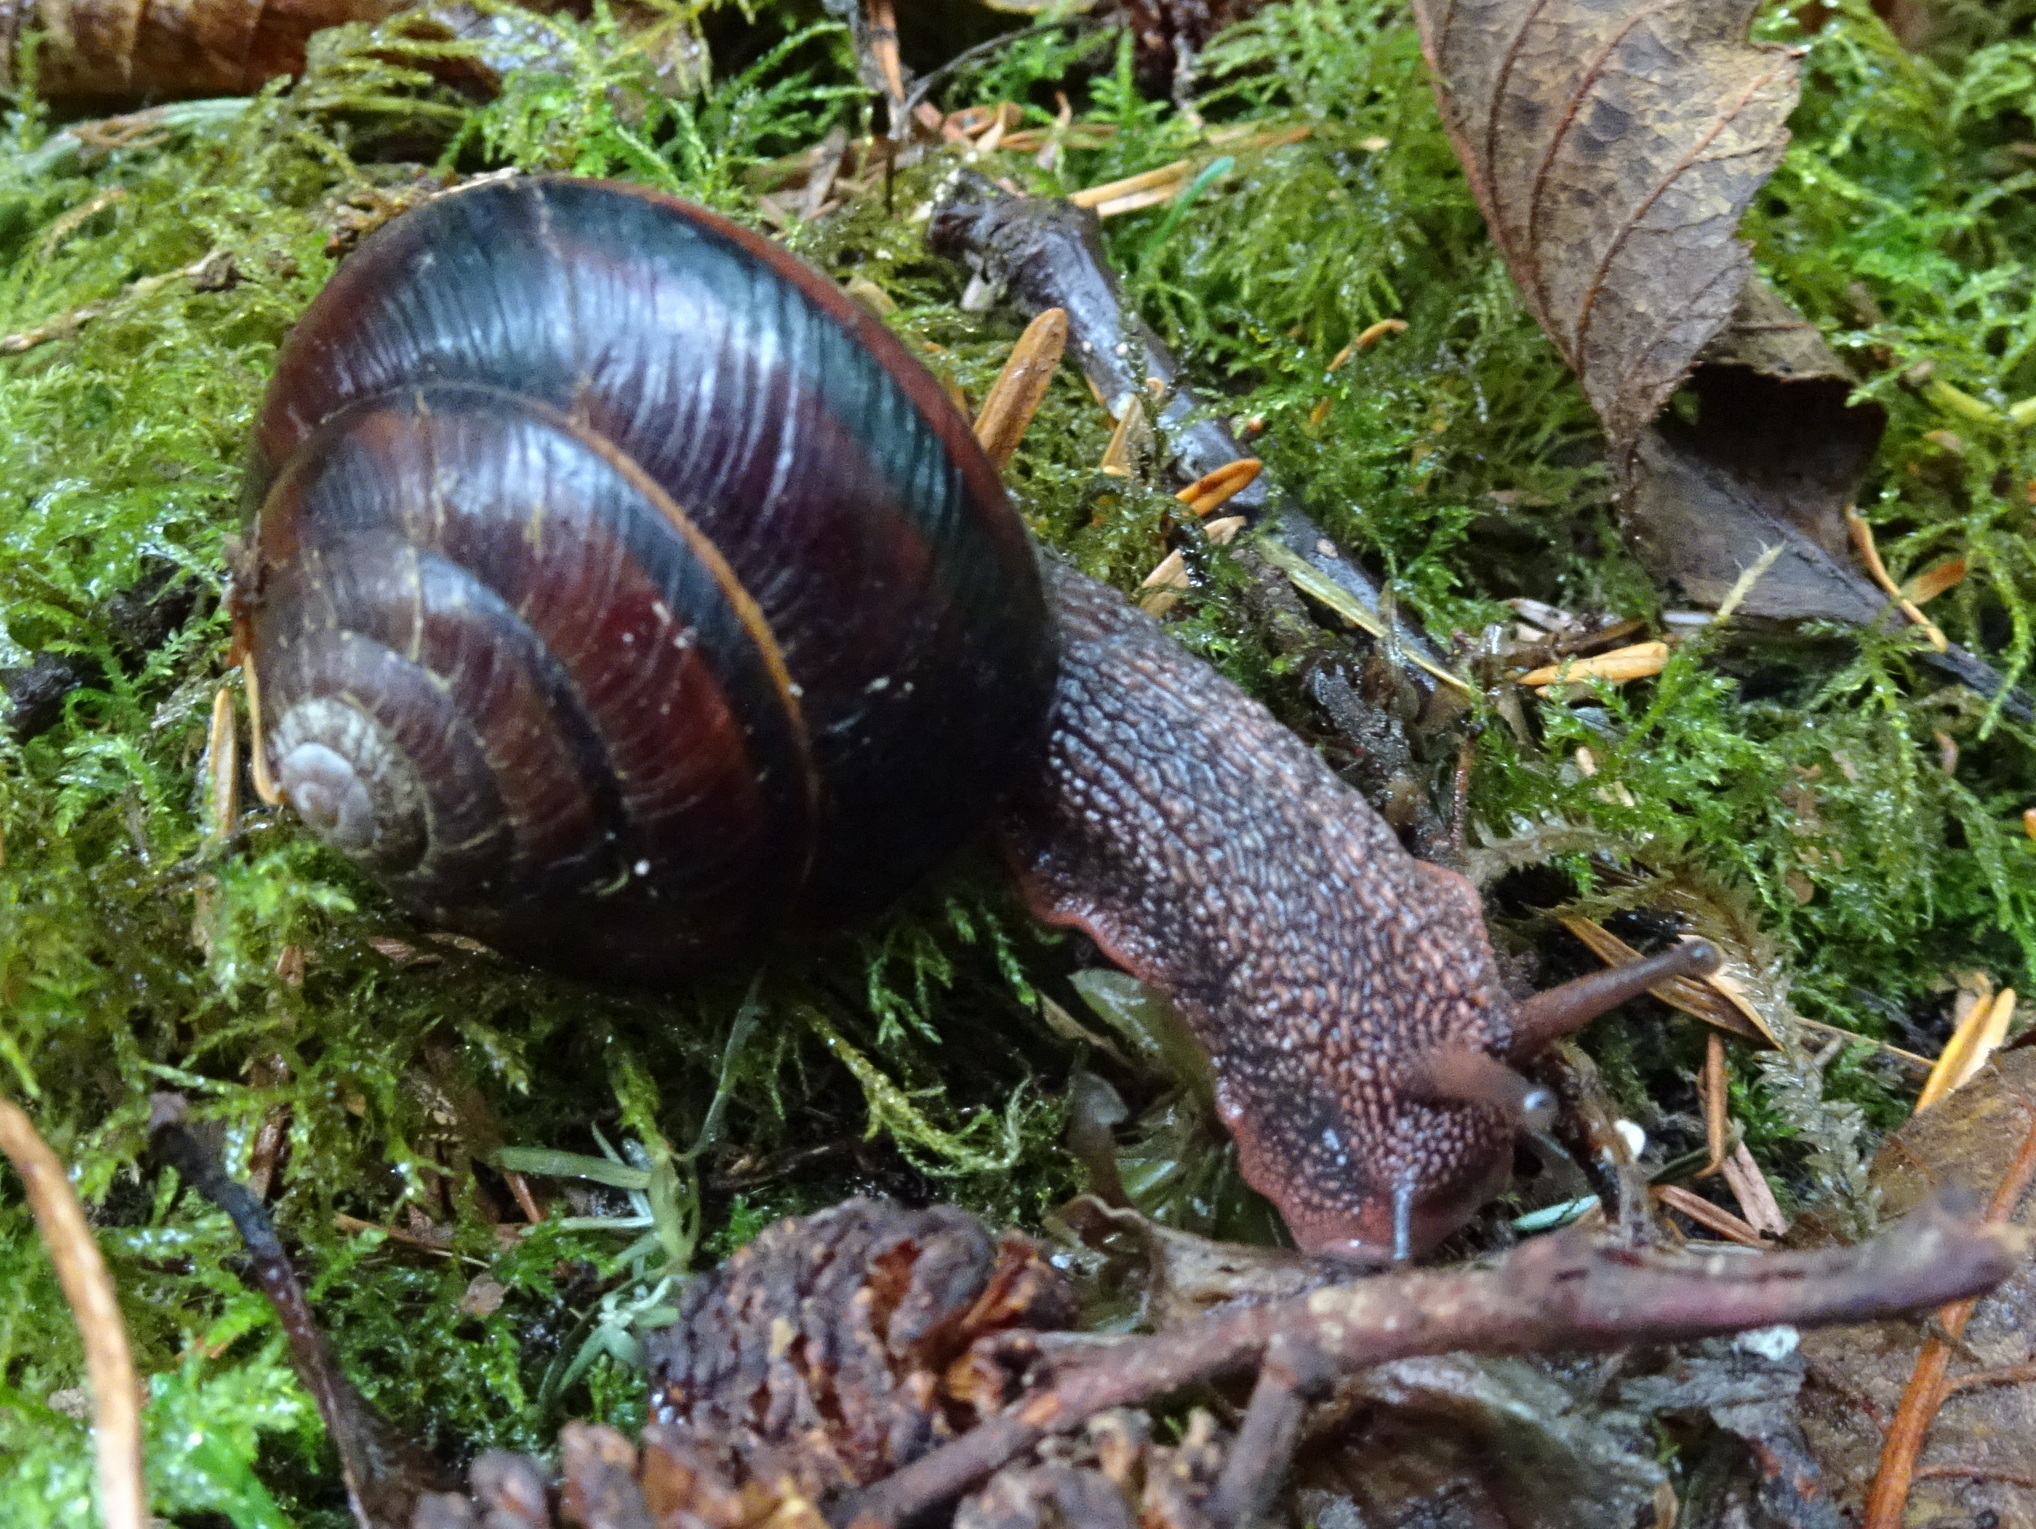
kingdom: Animalia
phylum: Mollusca
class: Gastropoda
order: Stylommatophora
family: Xanthonychidae
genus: Monadenia
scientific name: Monadenia fidelis
